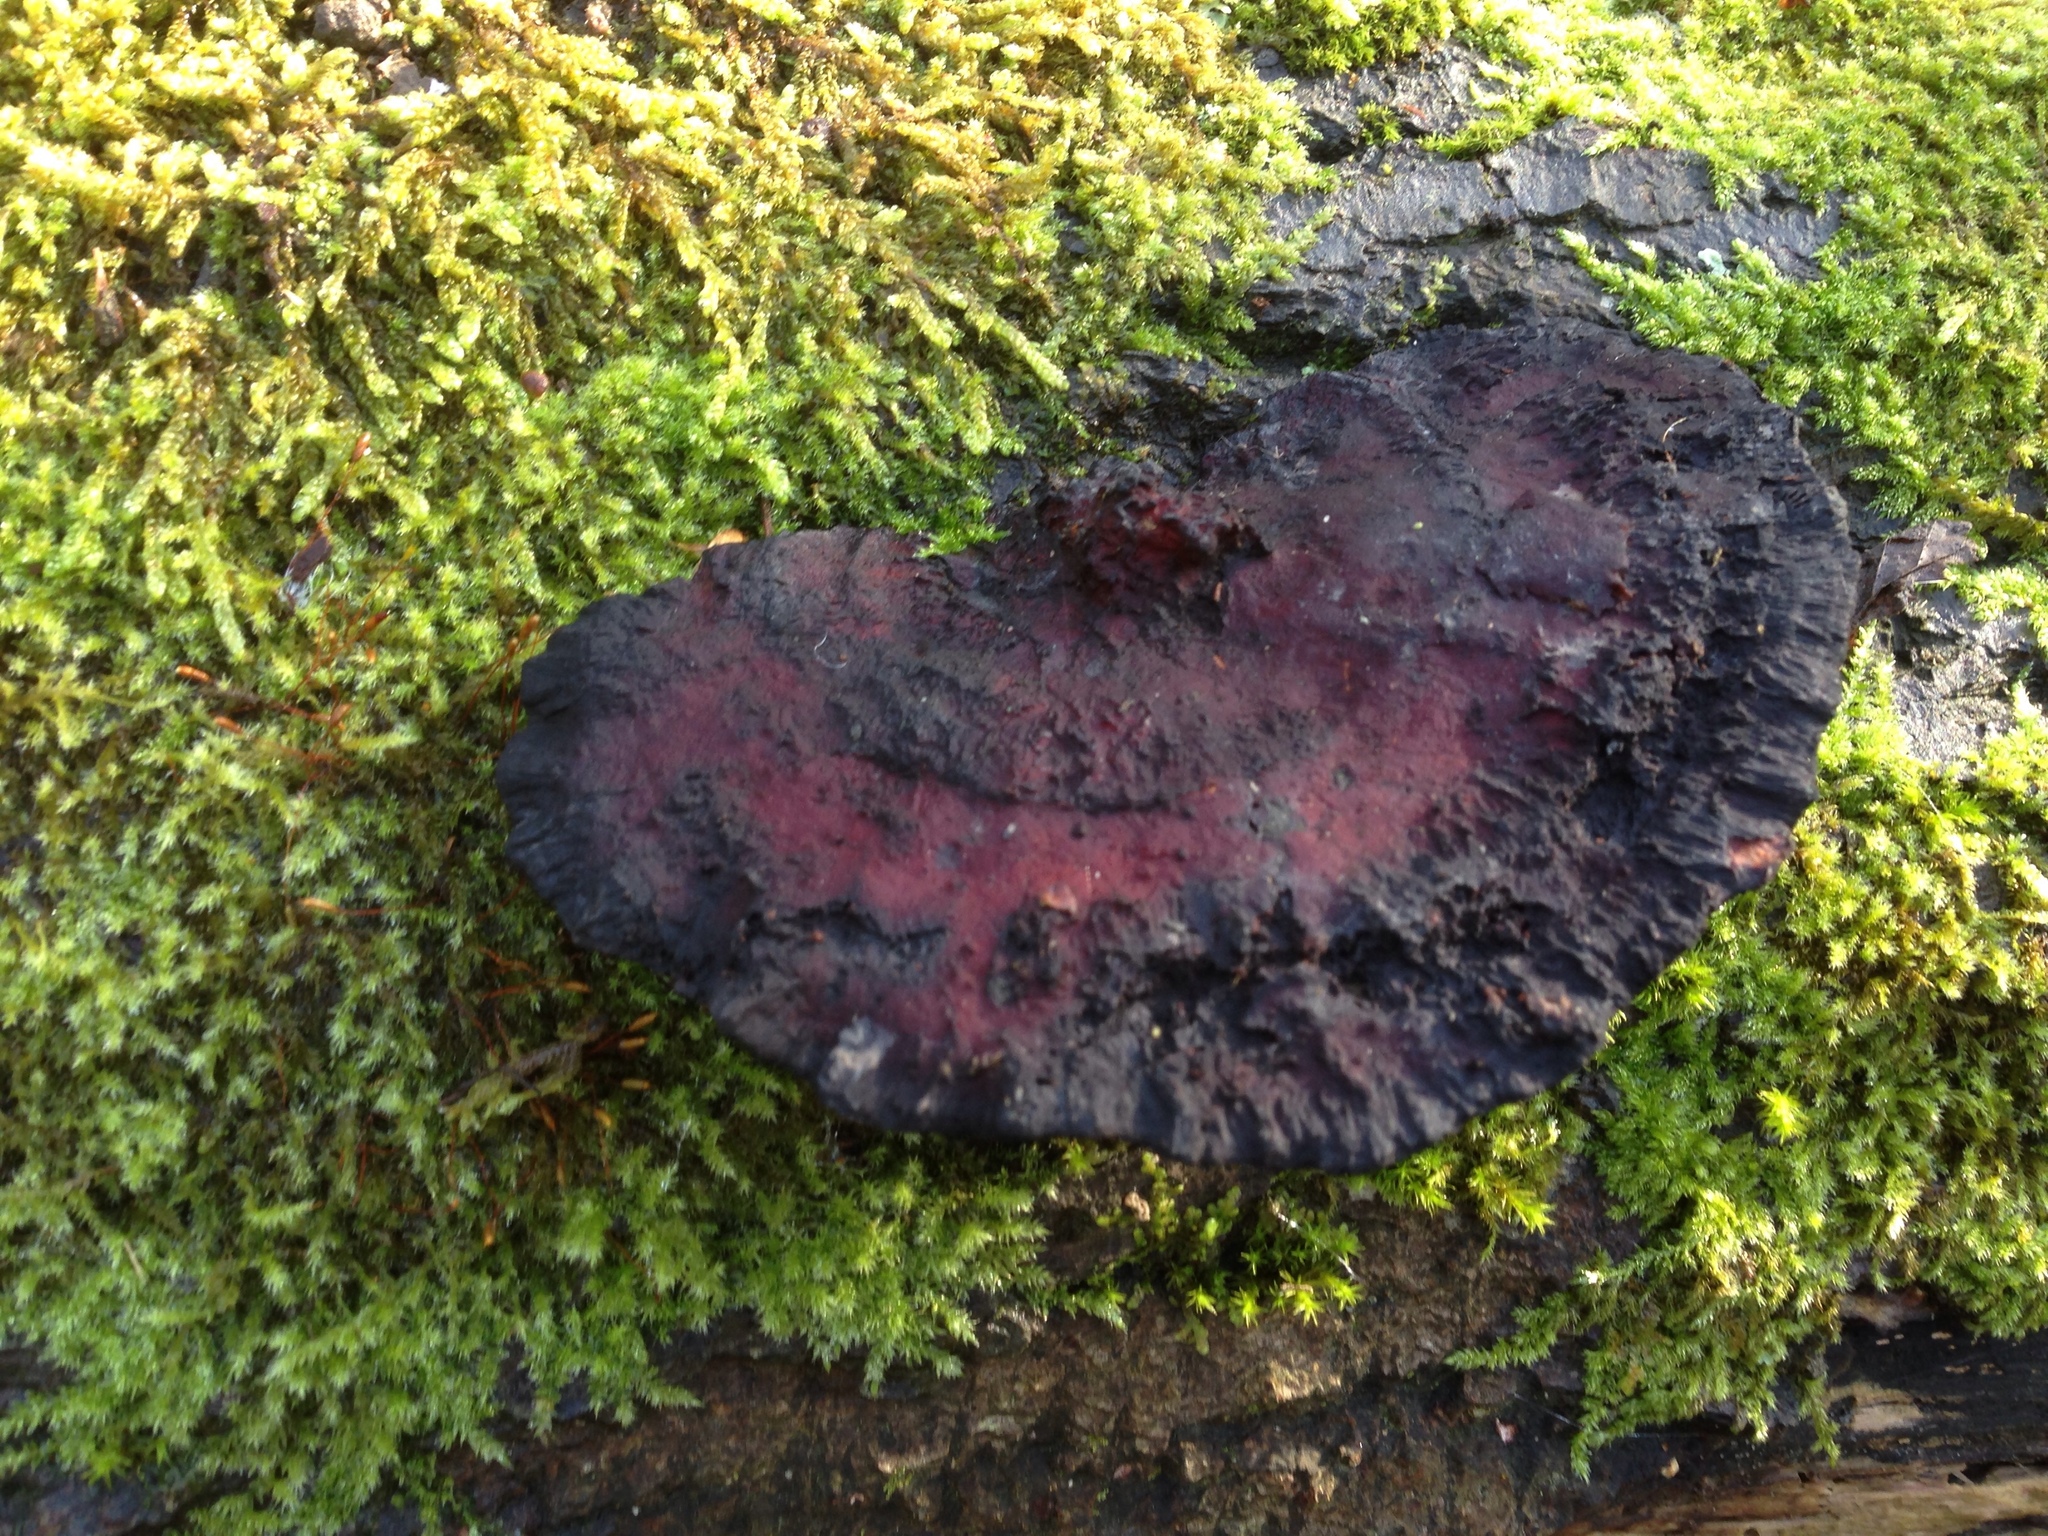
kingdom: Fungi
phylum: Basidiomycota
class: Agaricomycetes
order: Polyporales
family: Polyporaceae
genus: Daedaleopsis
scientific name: Daedaleopsis confragosa
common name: Blushing bracket
